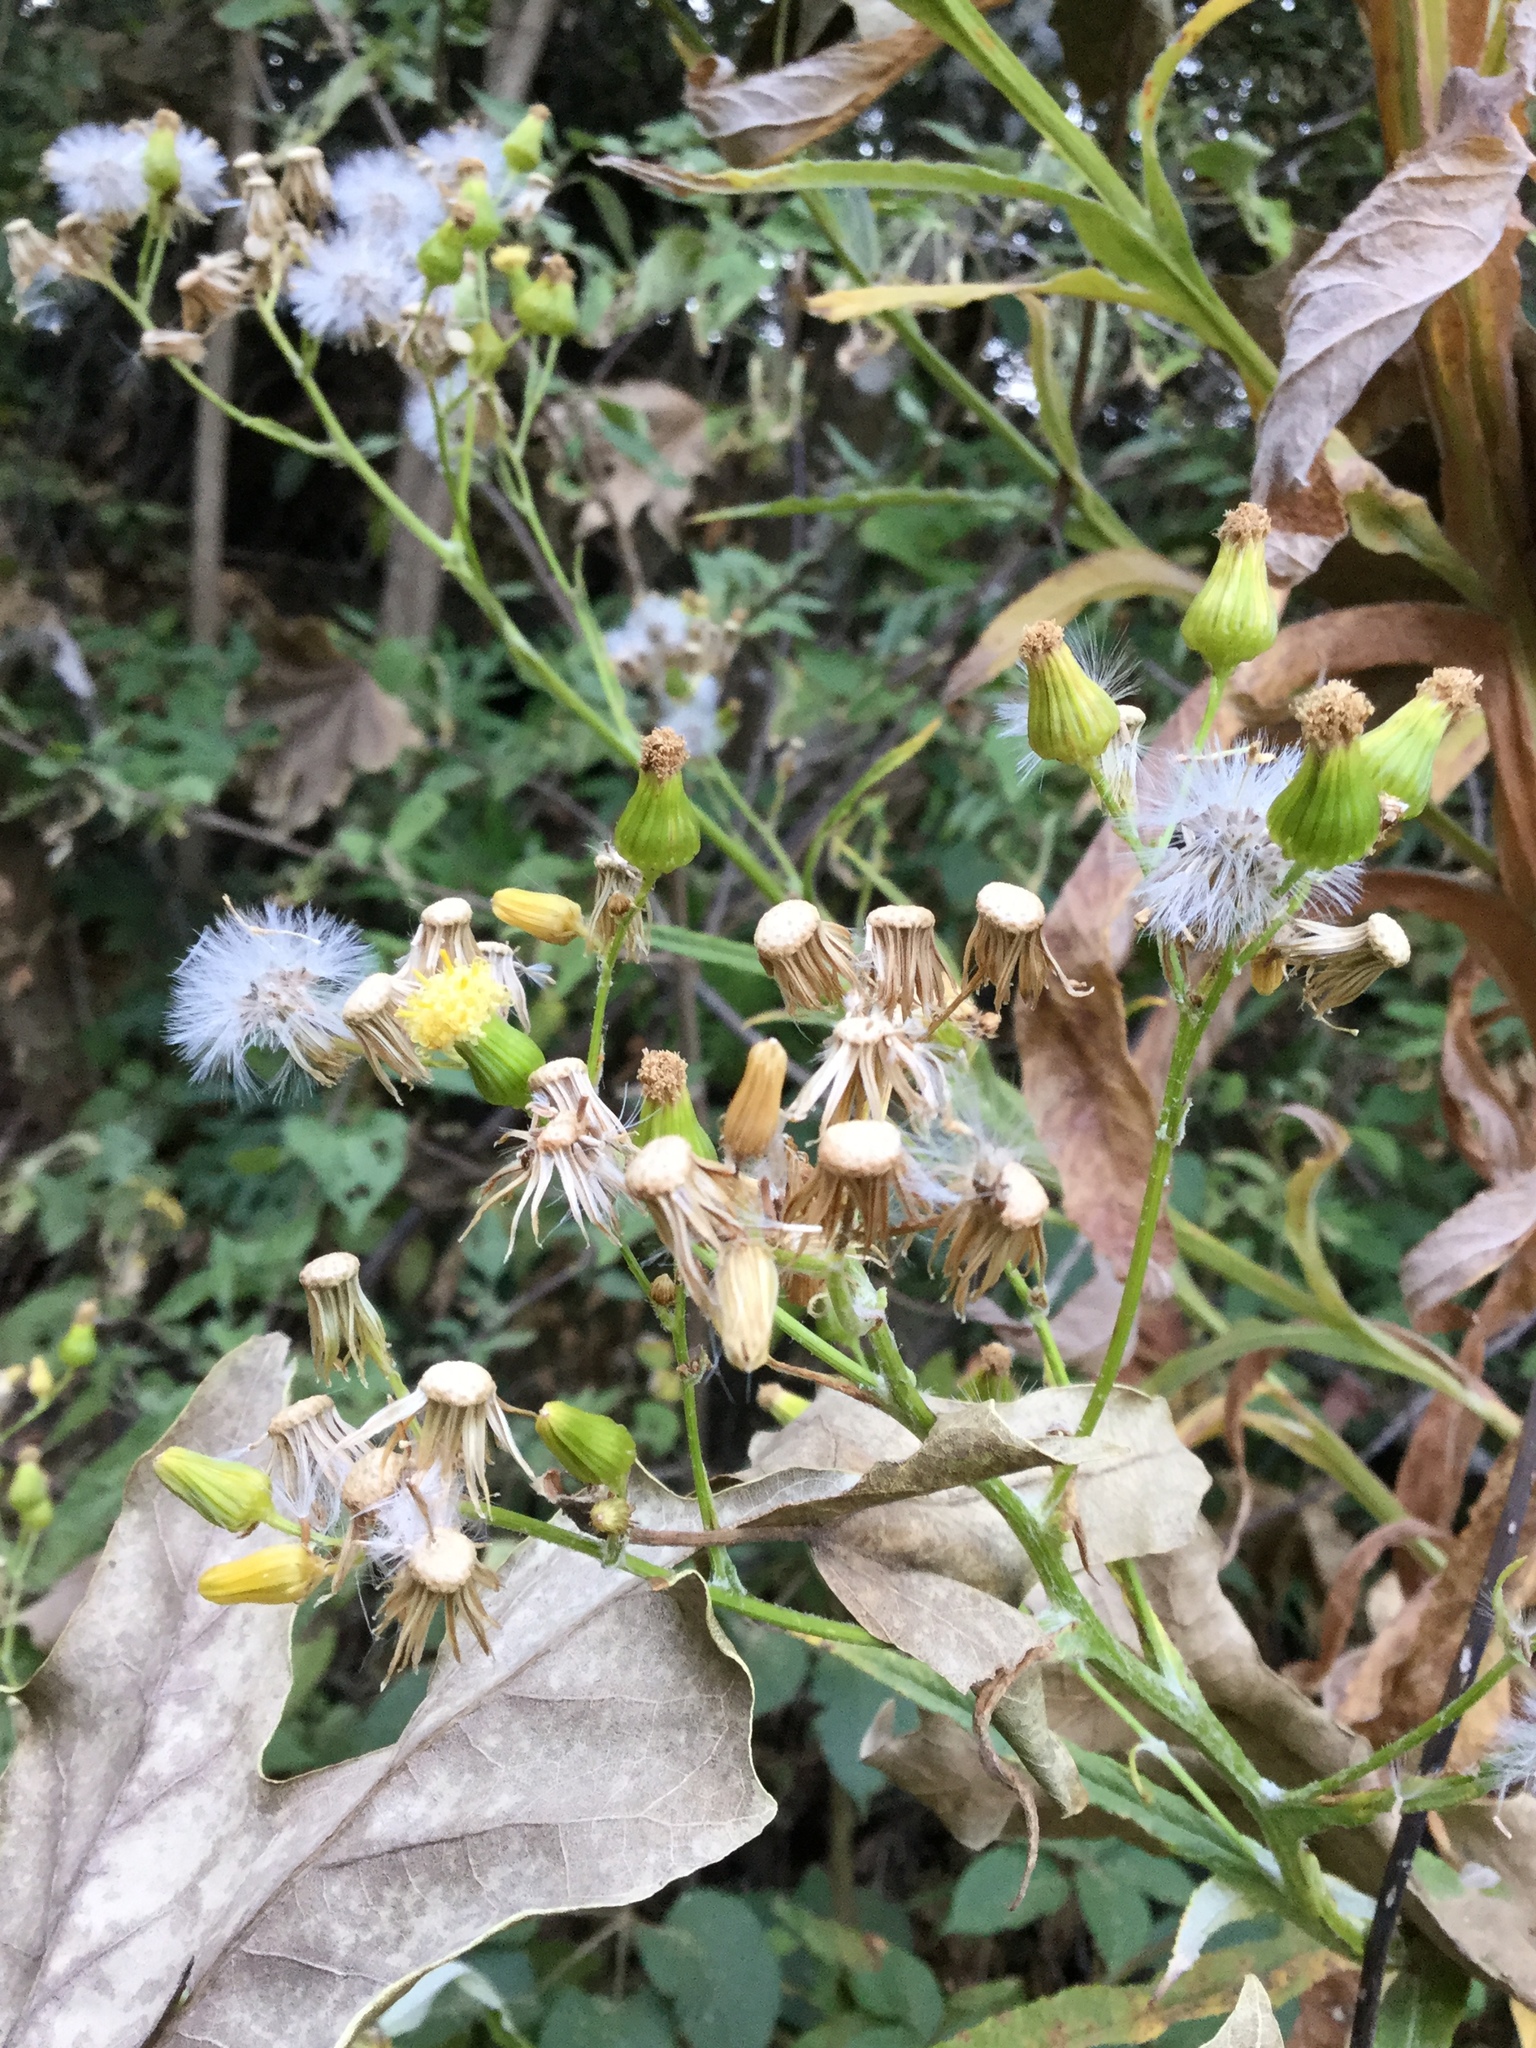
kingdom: Plantae
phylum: Tracheophyta
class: Magnoliopsida
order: Asterales
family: Asteraceae
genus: Senecio
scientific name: Senecio prionopterus
